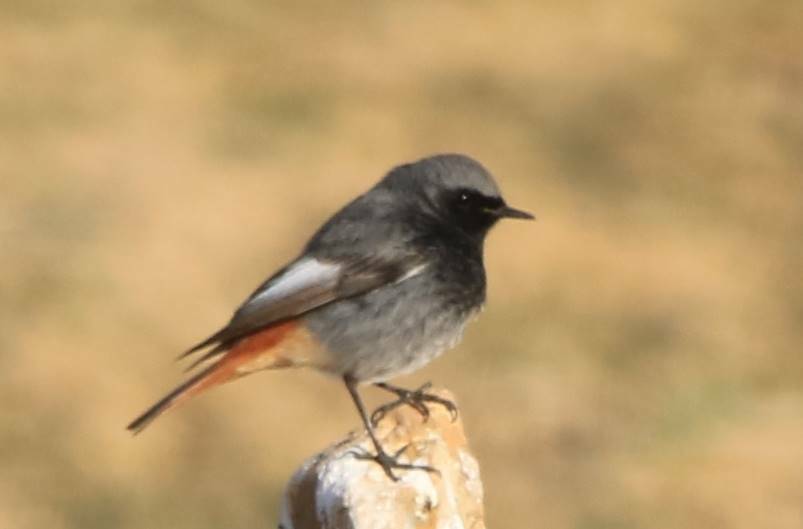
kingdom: Animalia
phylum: Chordata
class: Aves
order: Passeriformes
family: Muscicapidae
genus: Phoenicurus
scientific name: Phoenicurus ochruros
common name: Black redstart
